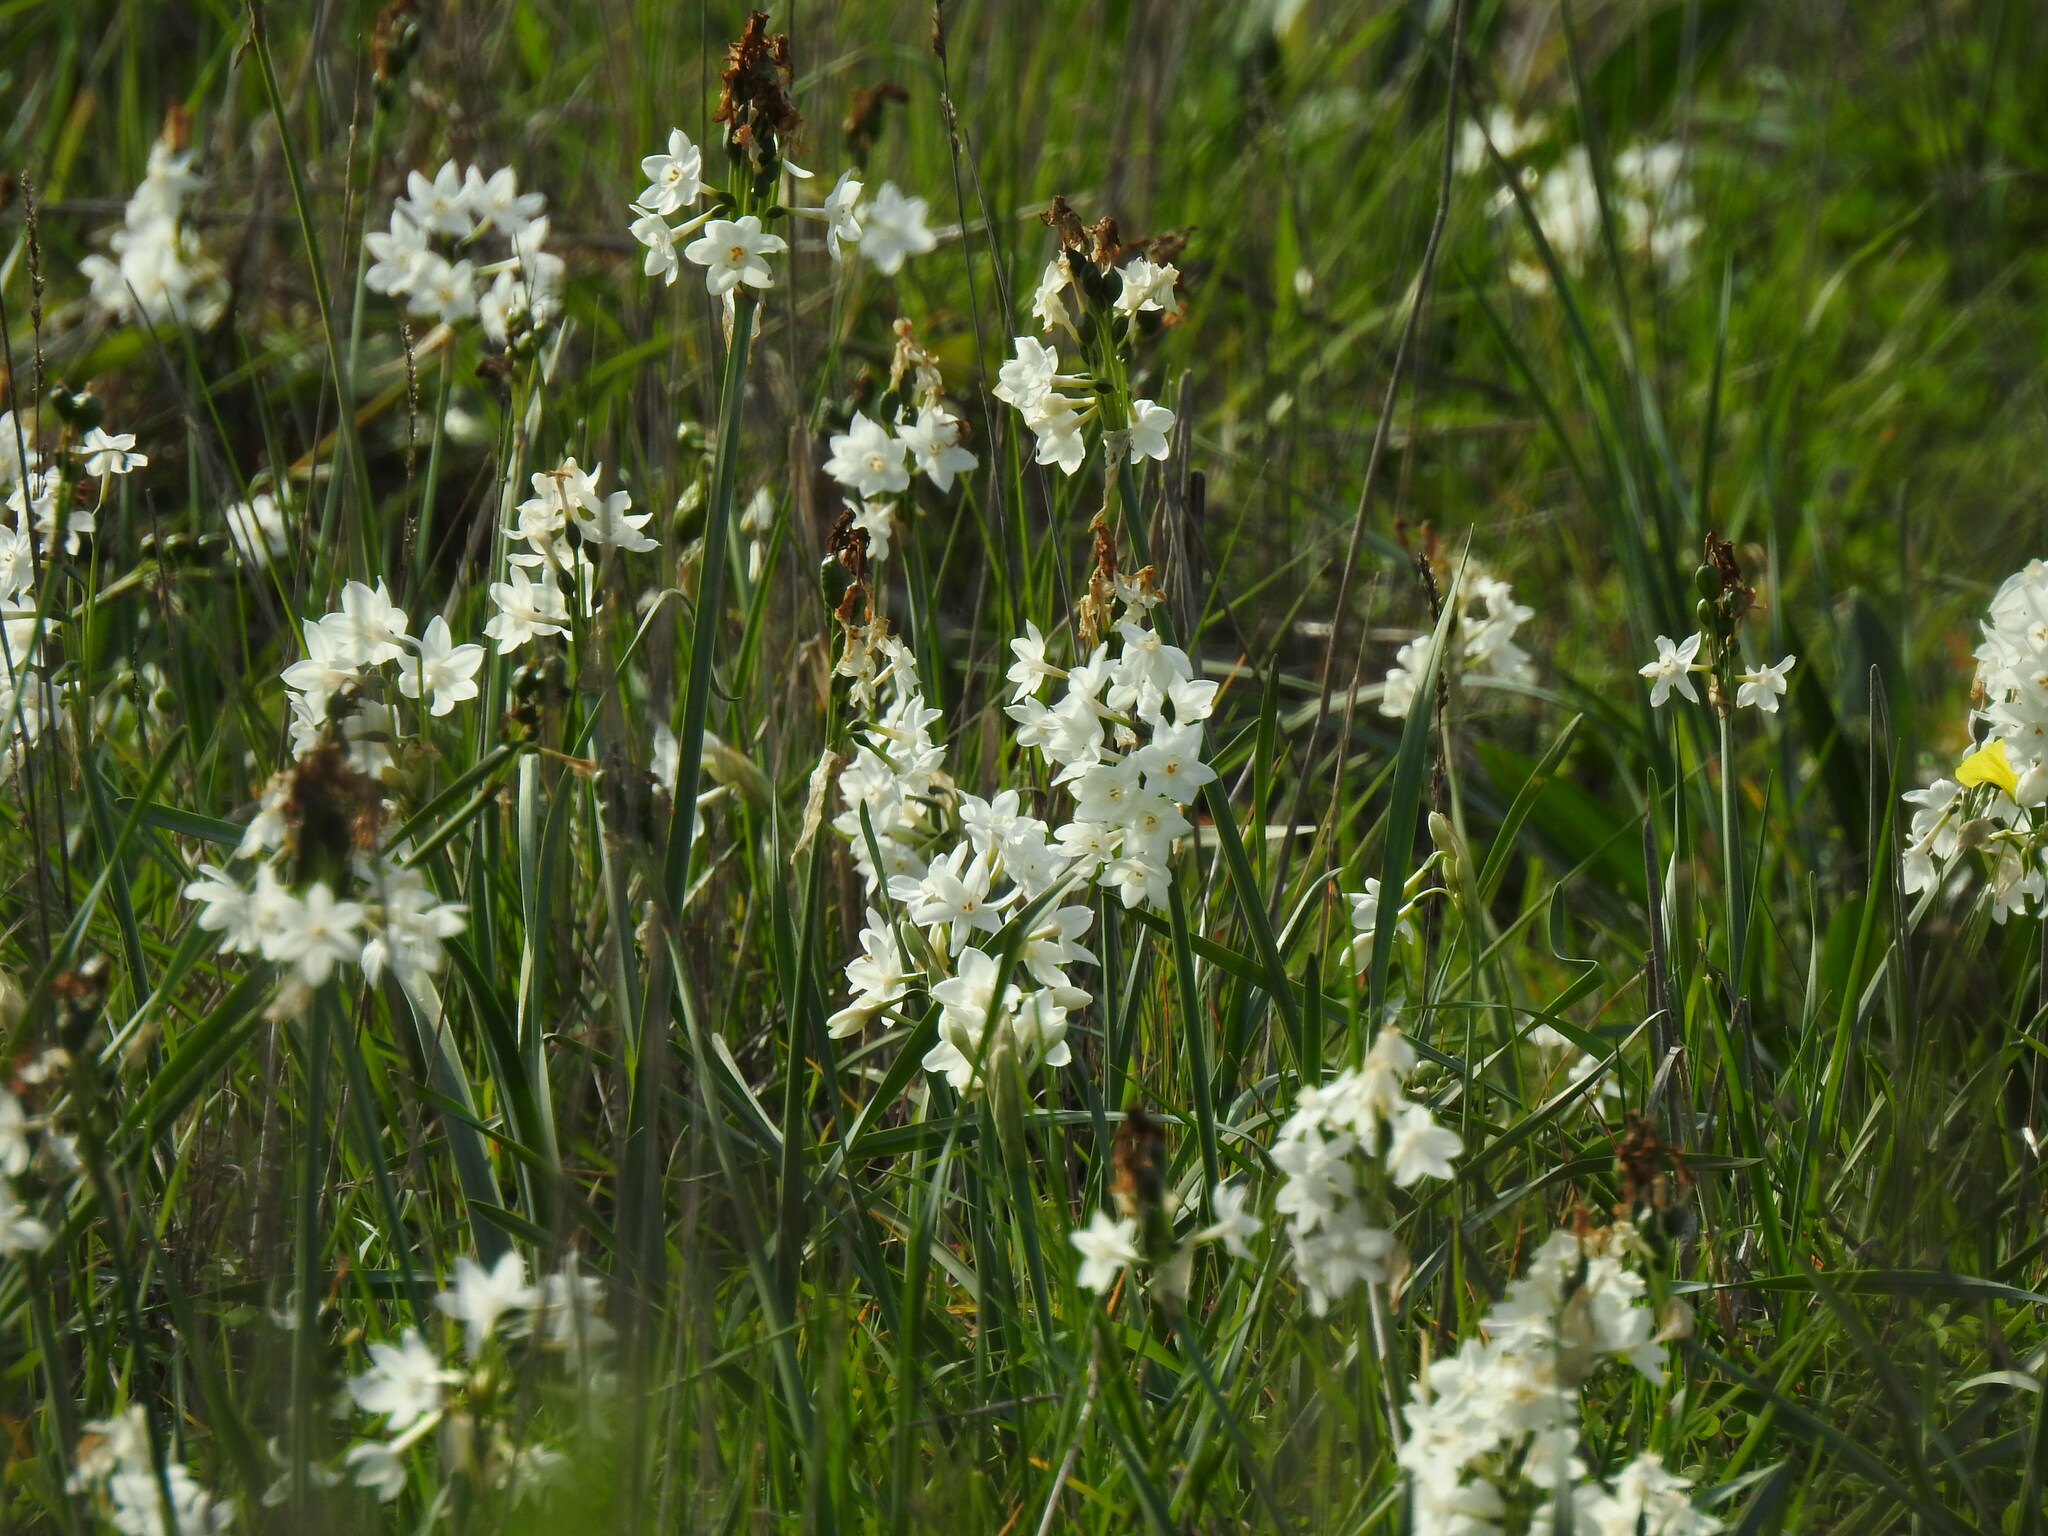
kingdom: Plantae
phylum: Tracheophyta
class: Liliopsida
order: Asparagales
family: Amaryllidaceae
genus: Narcissus
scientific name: Narcissus papyraceus
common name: Paper-white daffodil
